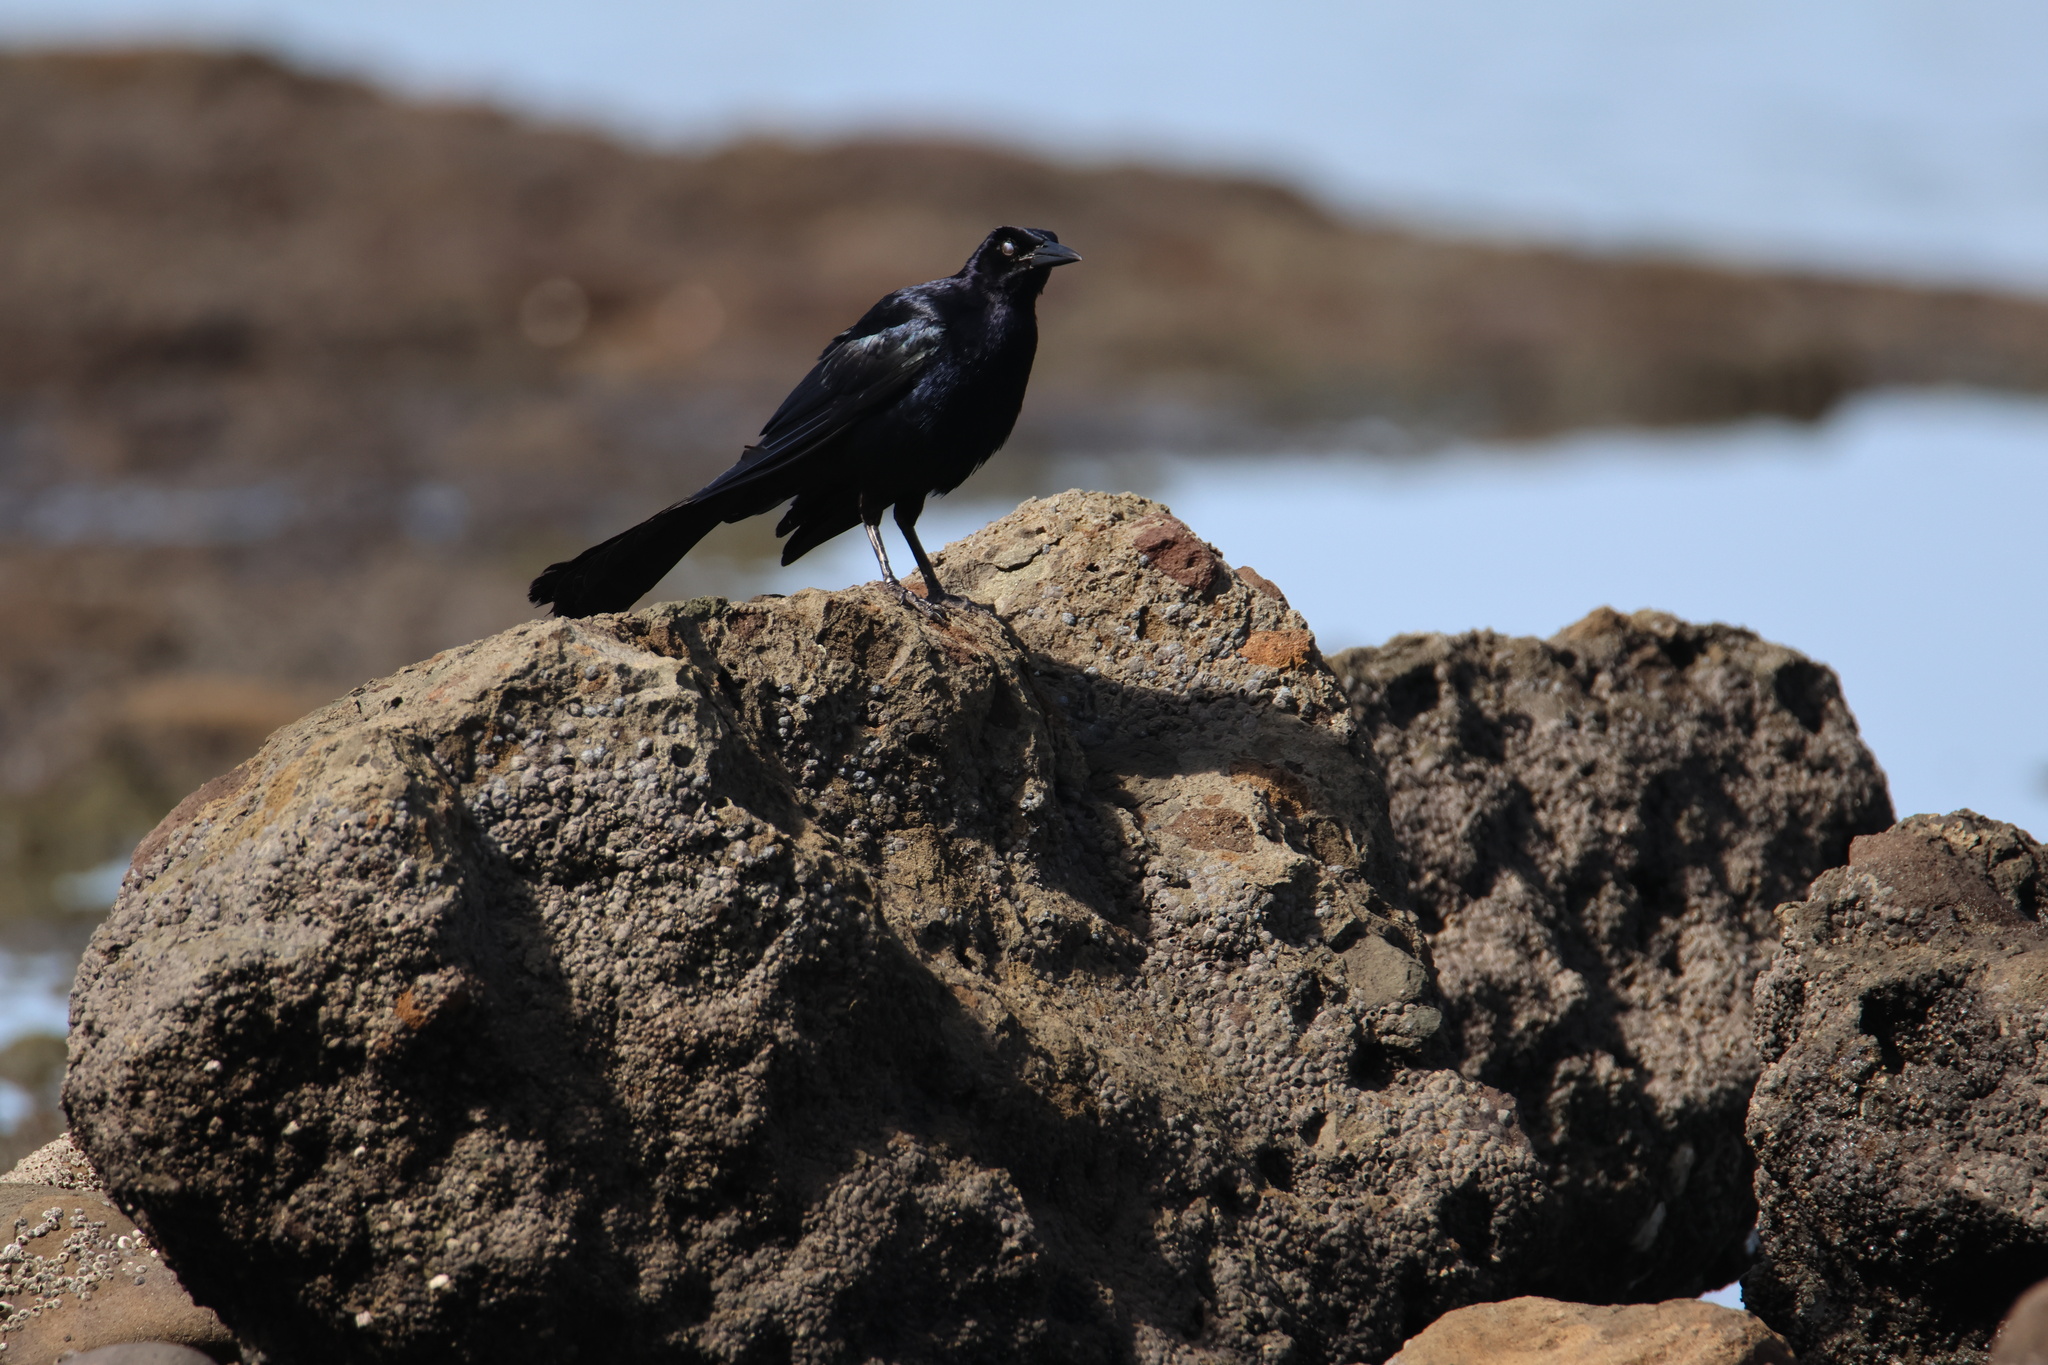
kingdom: Animalia
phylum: Chordata
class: Aves
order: Passeriformes
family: Icteridae
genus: Quiscalus
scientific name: Quiscalus mexicanus
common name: Great-tailed grackle
